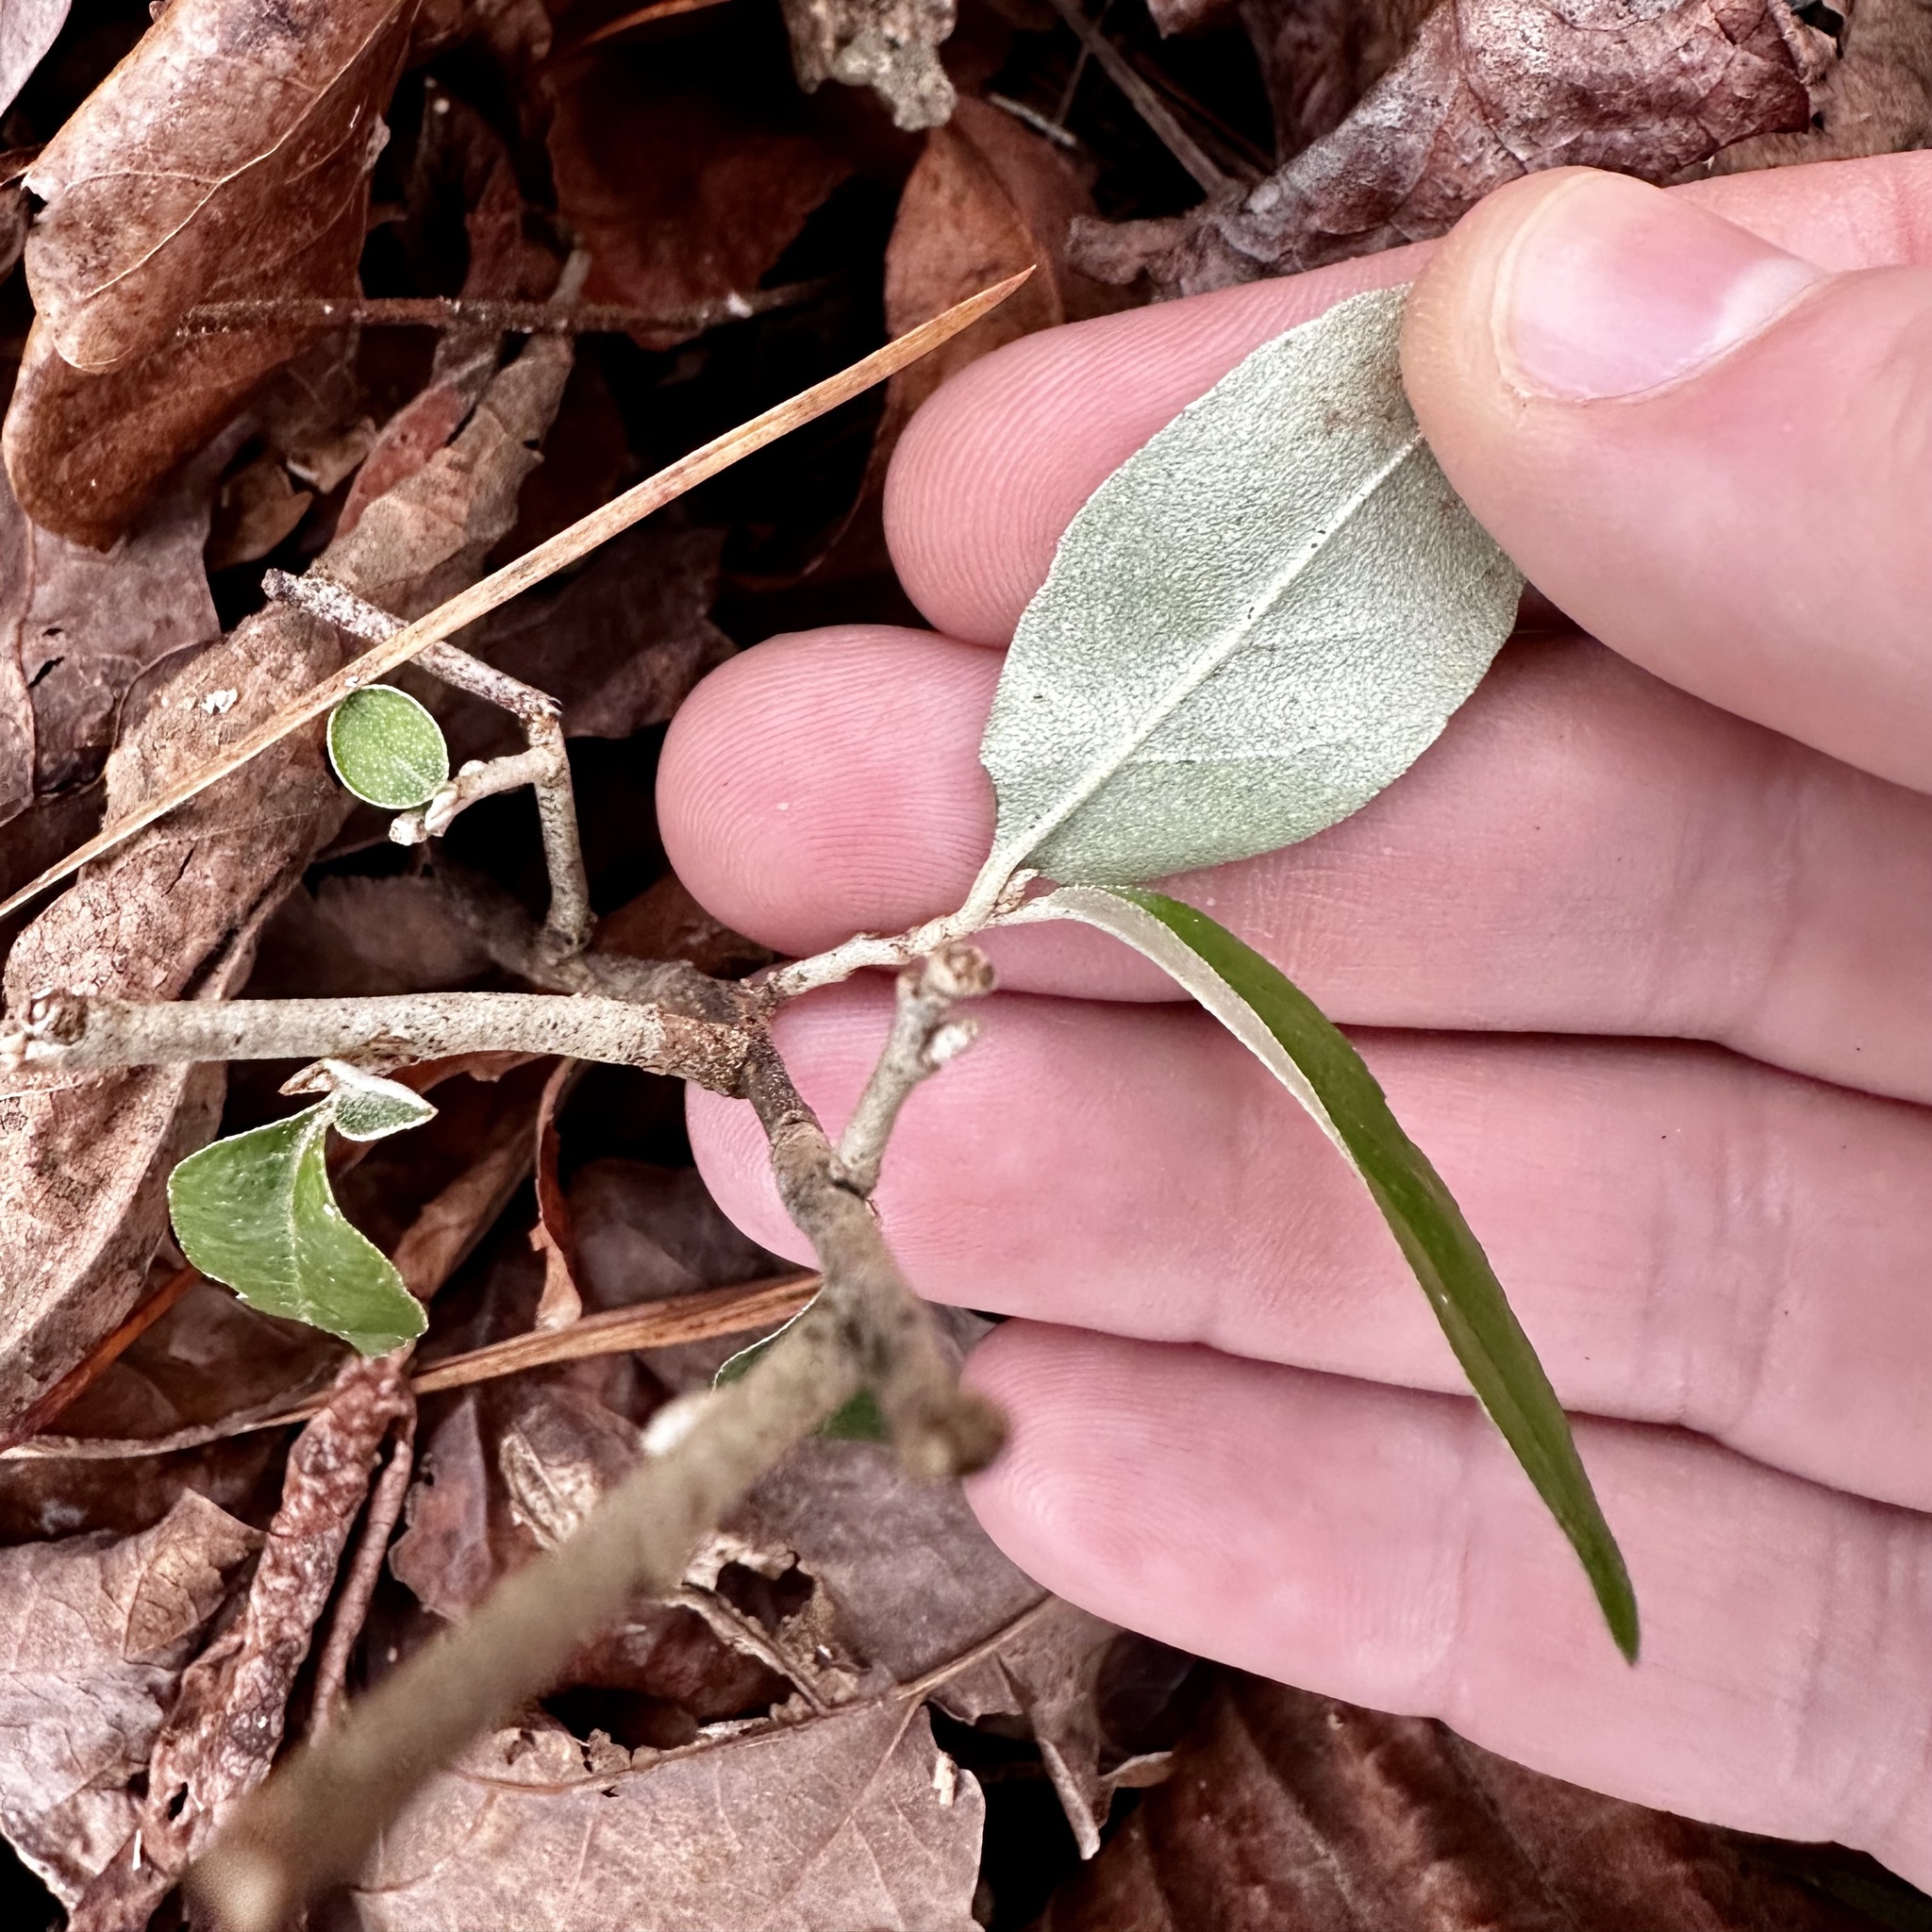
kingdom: Plantae
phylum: Tracheophyta
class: Magnoliopsida
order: Rosales
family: Elaeagnaceae
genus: Elaeagnus
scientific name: Elaeagnus umbellata
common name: Autumn olive
